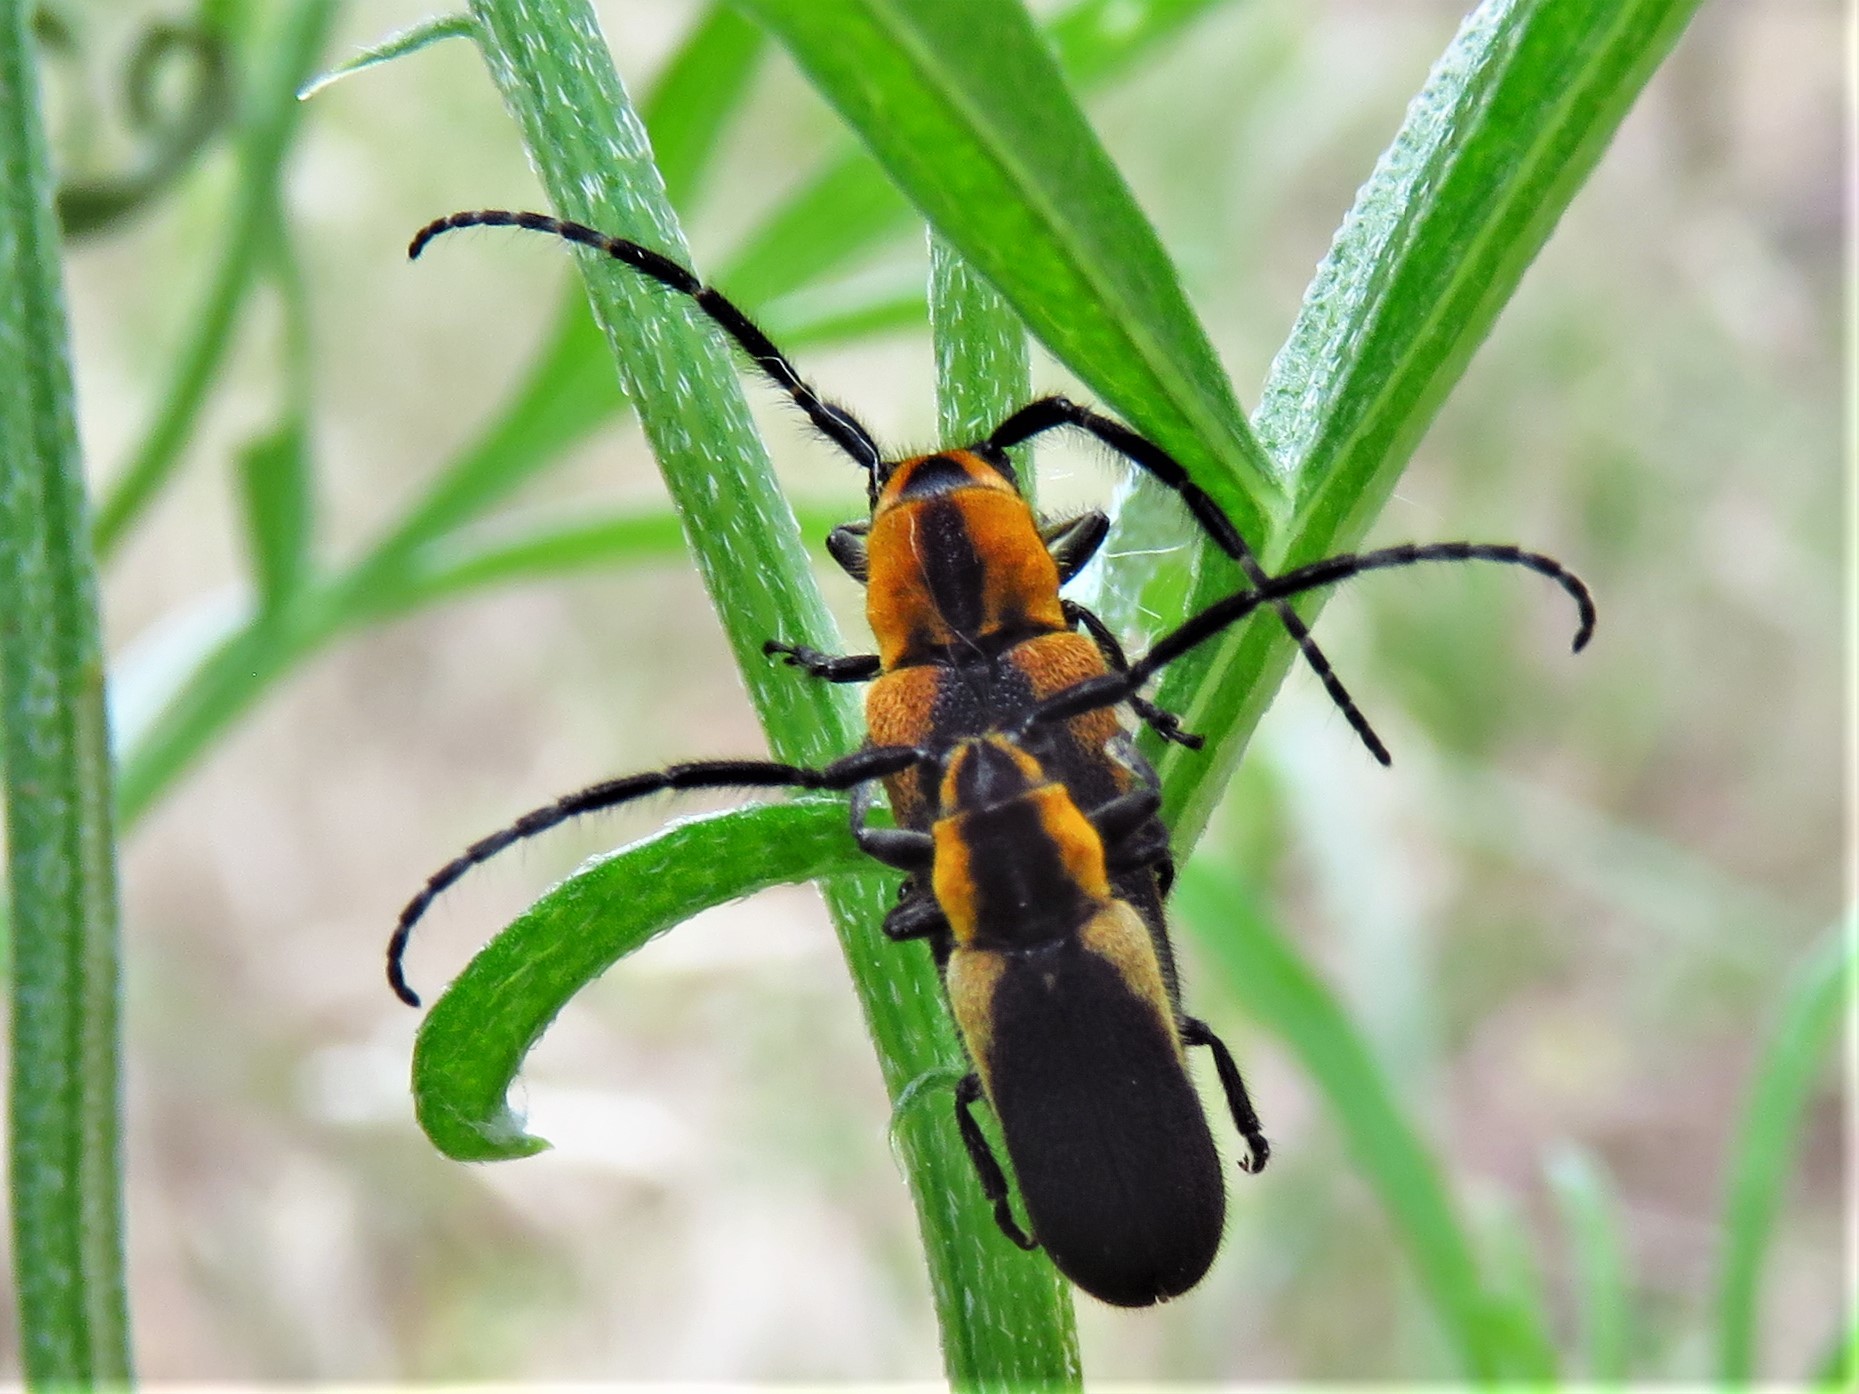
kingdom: Animalia
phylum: Arthropoda
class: Insecta
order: Coleoptera
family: Cerambycidae
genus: Hemierana
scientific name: Hemierana marginata
